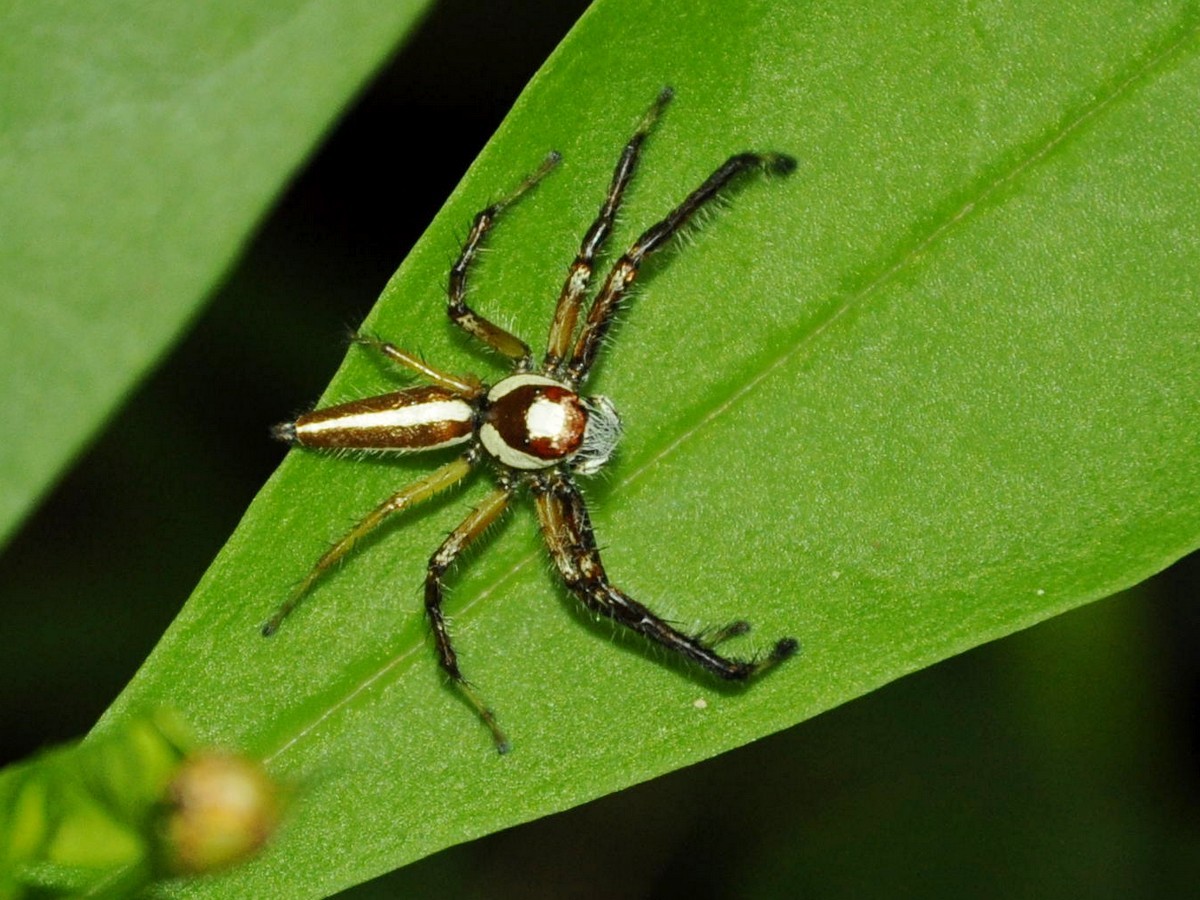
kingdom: Animalia
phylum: Arthropoda
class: Arachnida
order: Araneae
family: Salticidae
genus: Telamonia
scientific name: Telamonia dimidiata
